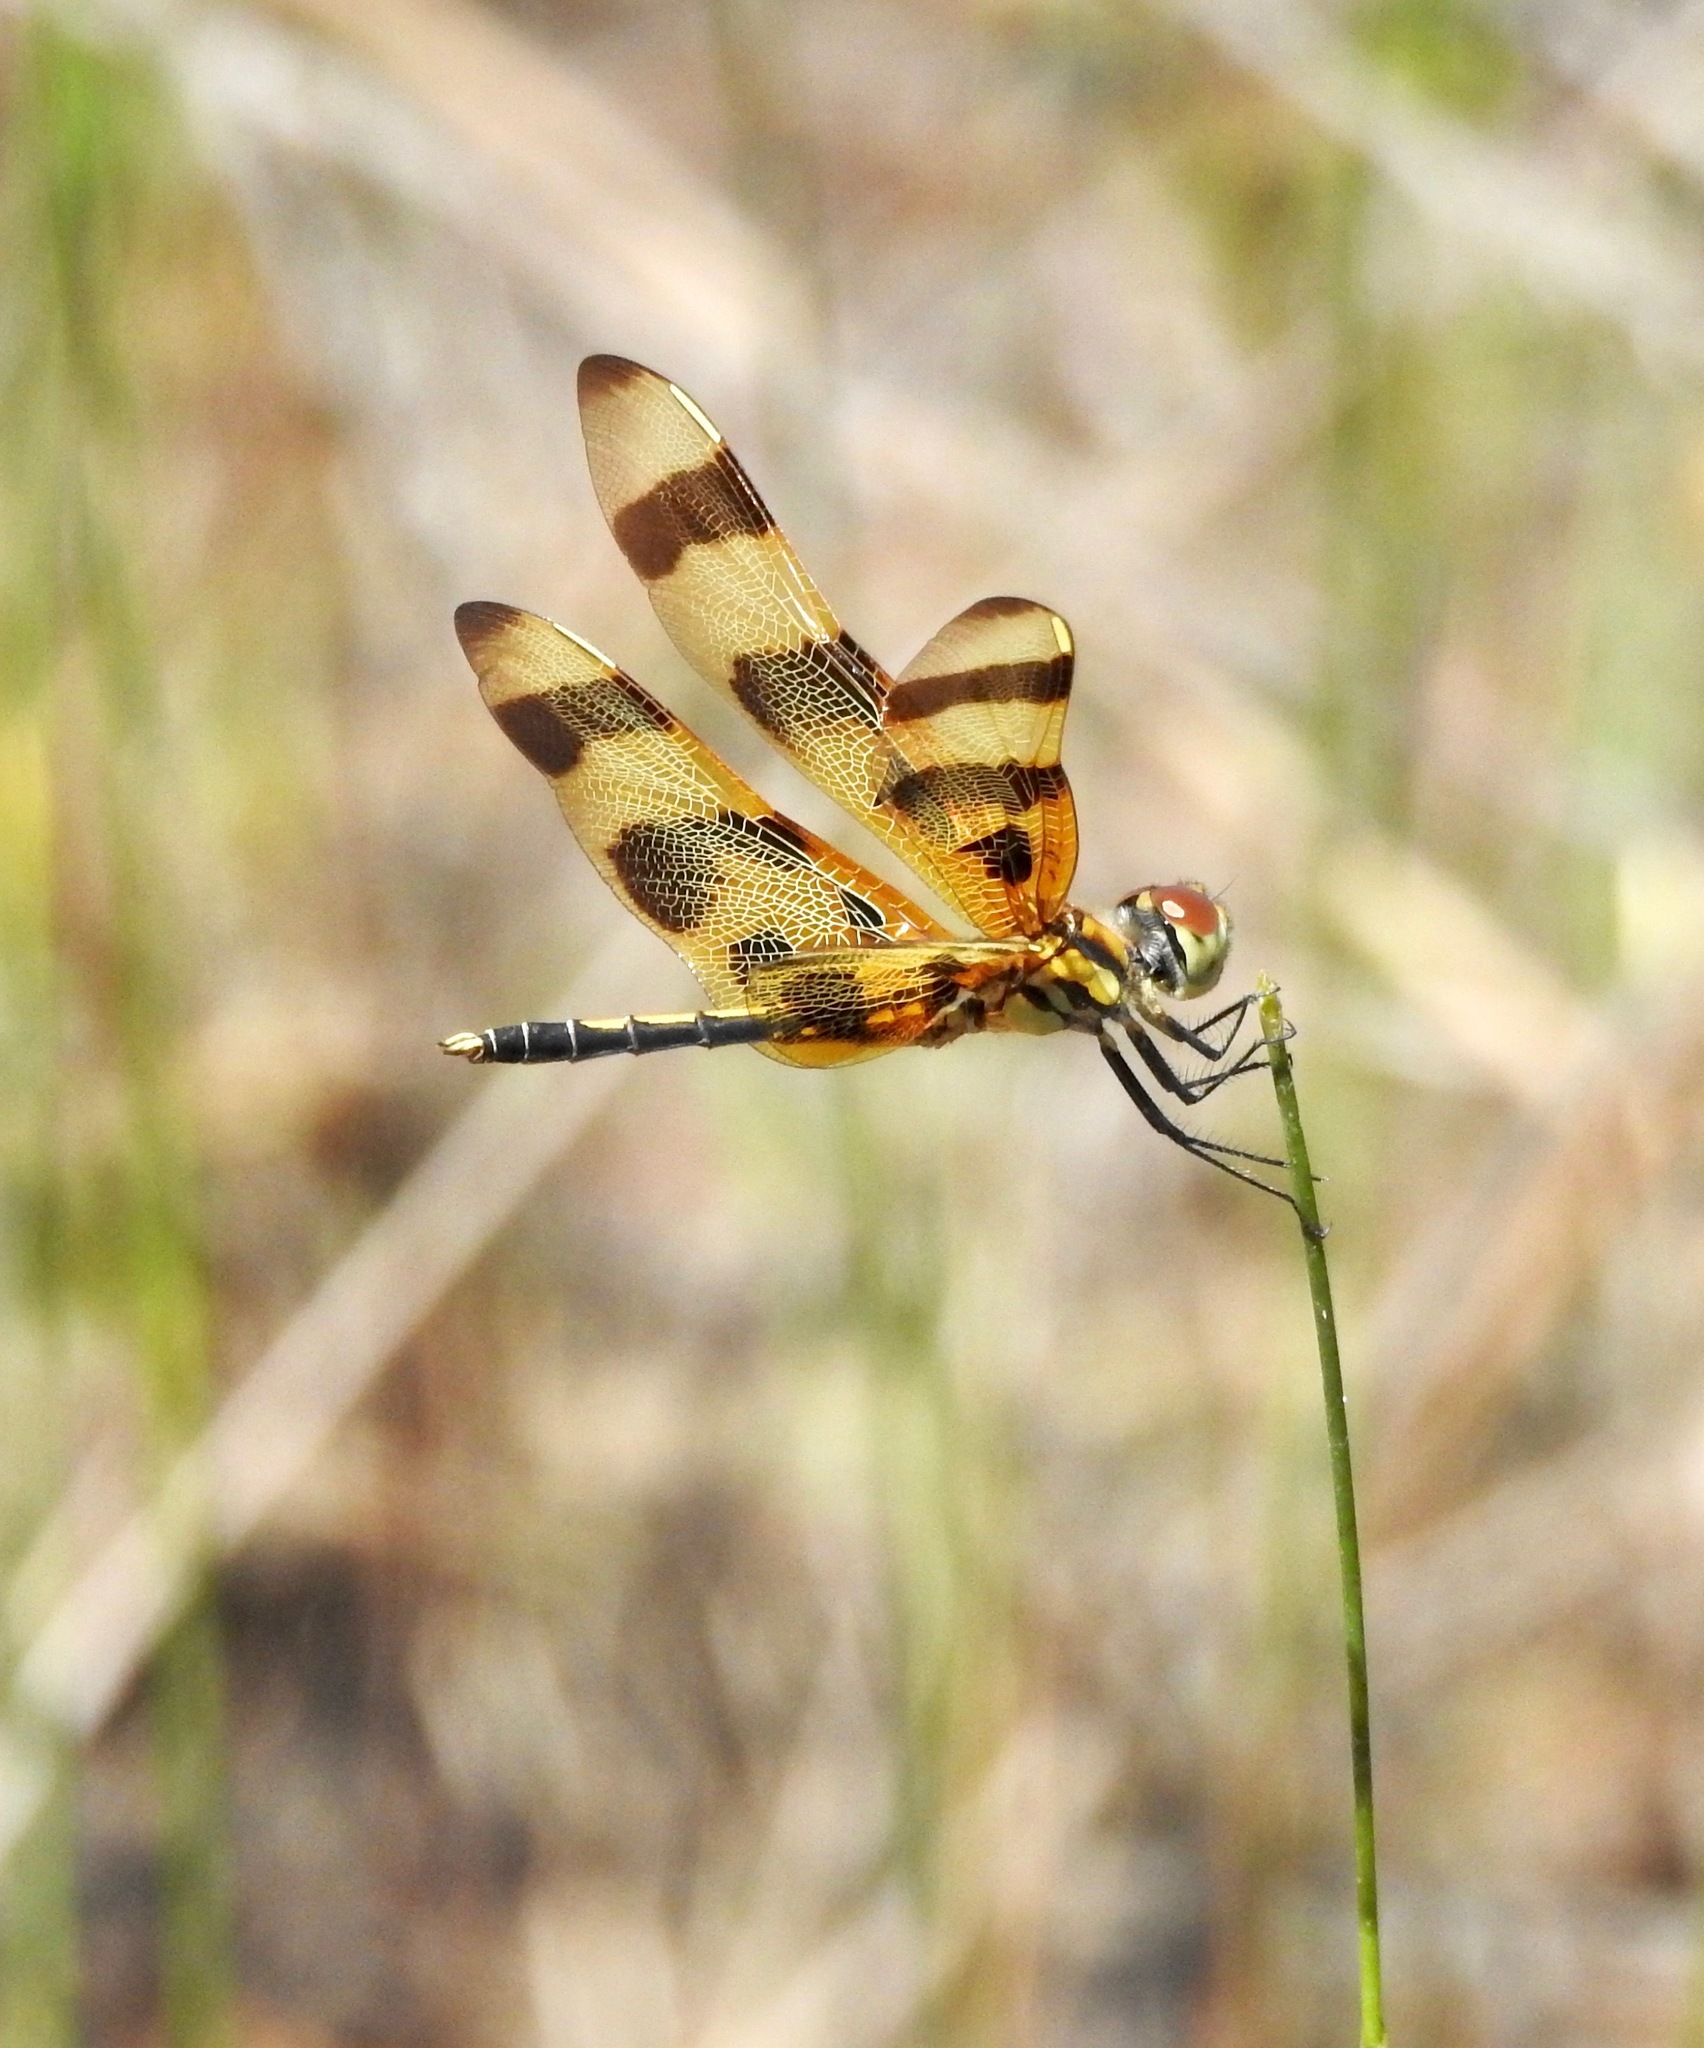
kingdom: Animalia
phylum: Arthropoda
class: Insecta
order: Odonata
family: Libellulidae
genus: Celithemis
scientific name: Celithemis eponina
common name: Halloween pennant
